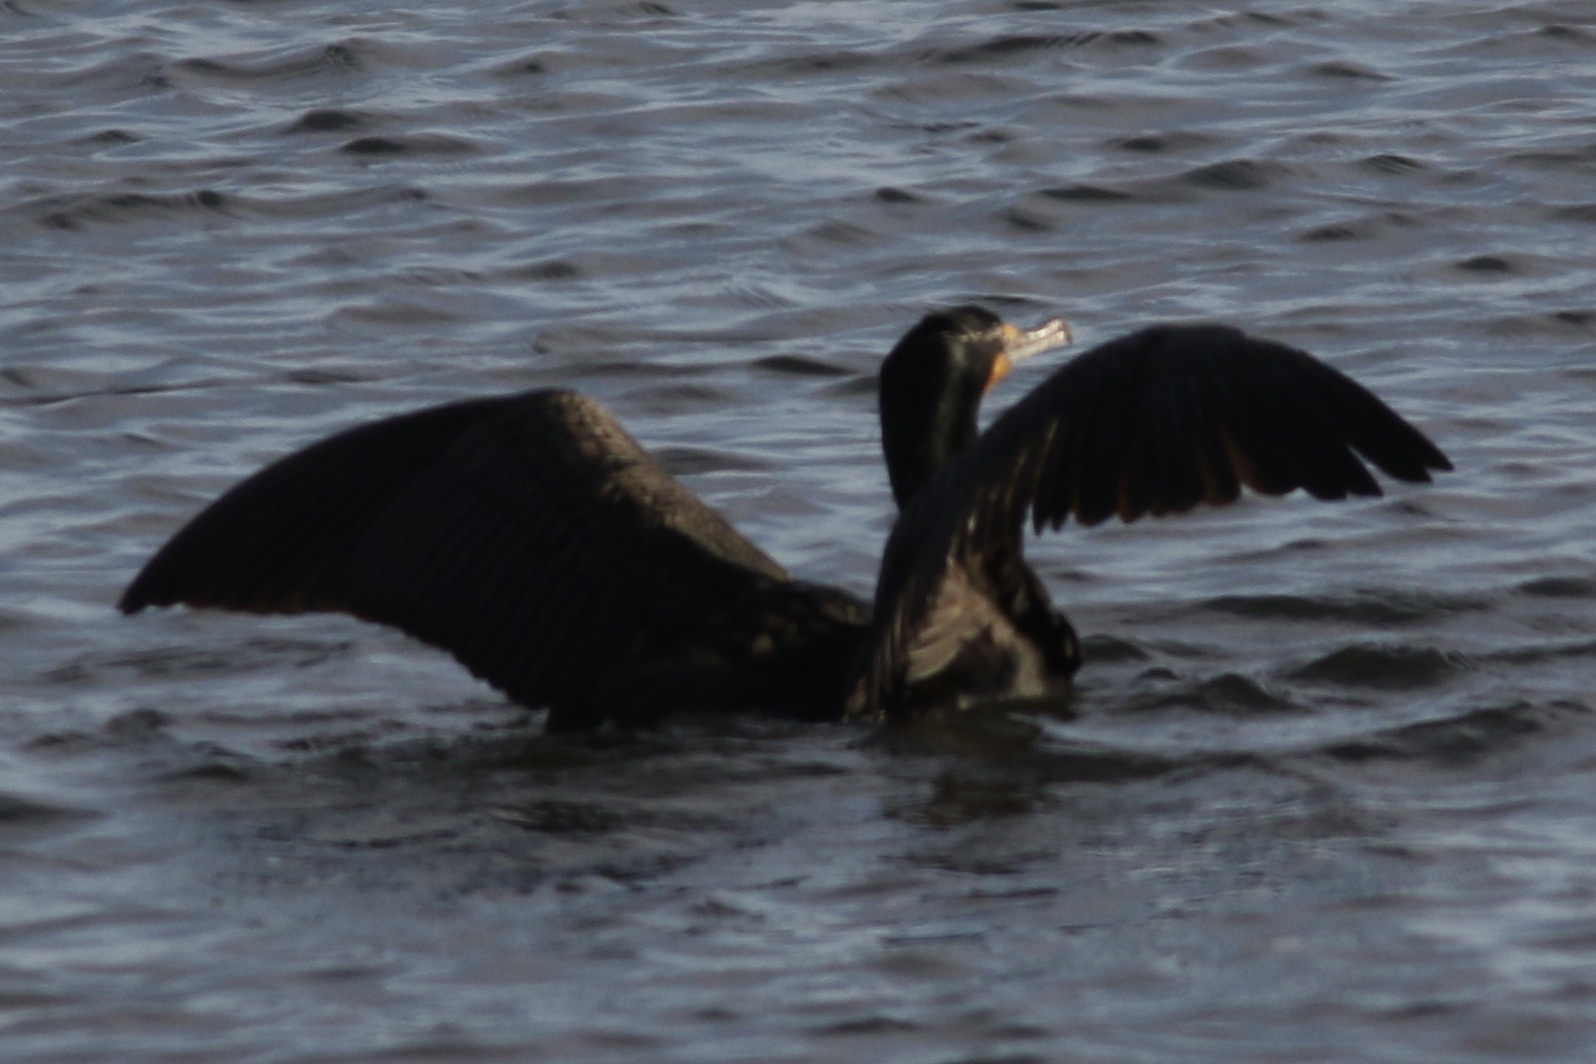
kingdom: Animalia
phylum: Chordata
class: Aves
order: Suliformes
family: Phalacrocoracidae
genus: Phalacrocorax
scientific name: Phalacrocorax auritus
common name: Double-crested cormorant
